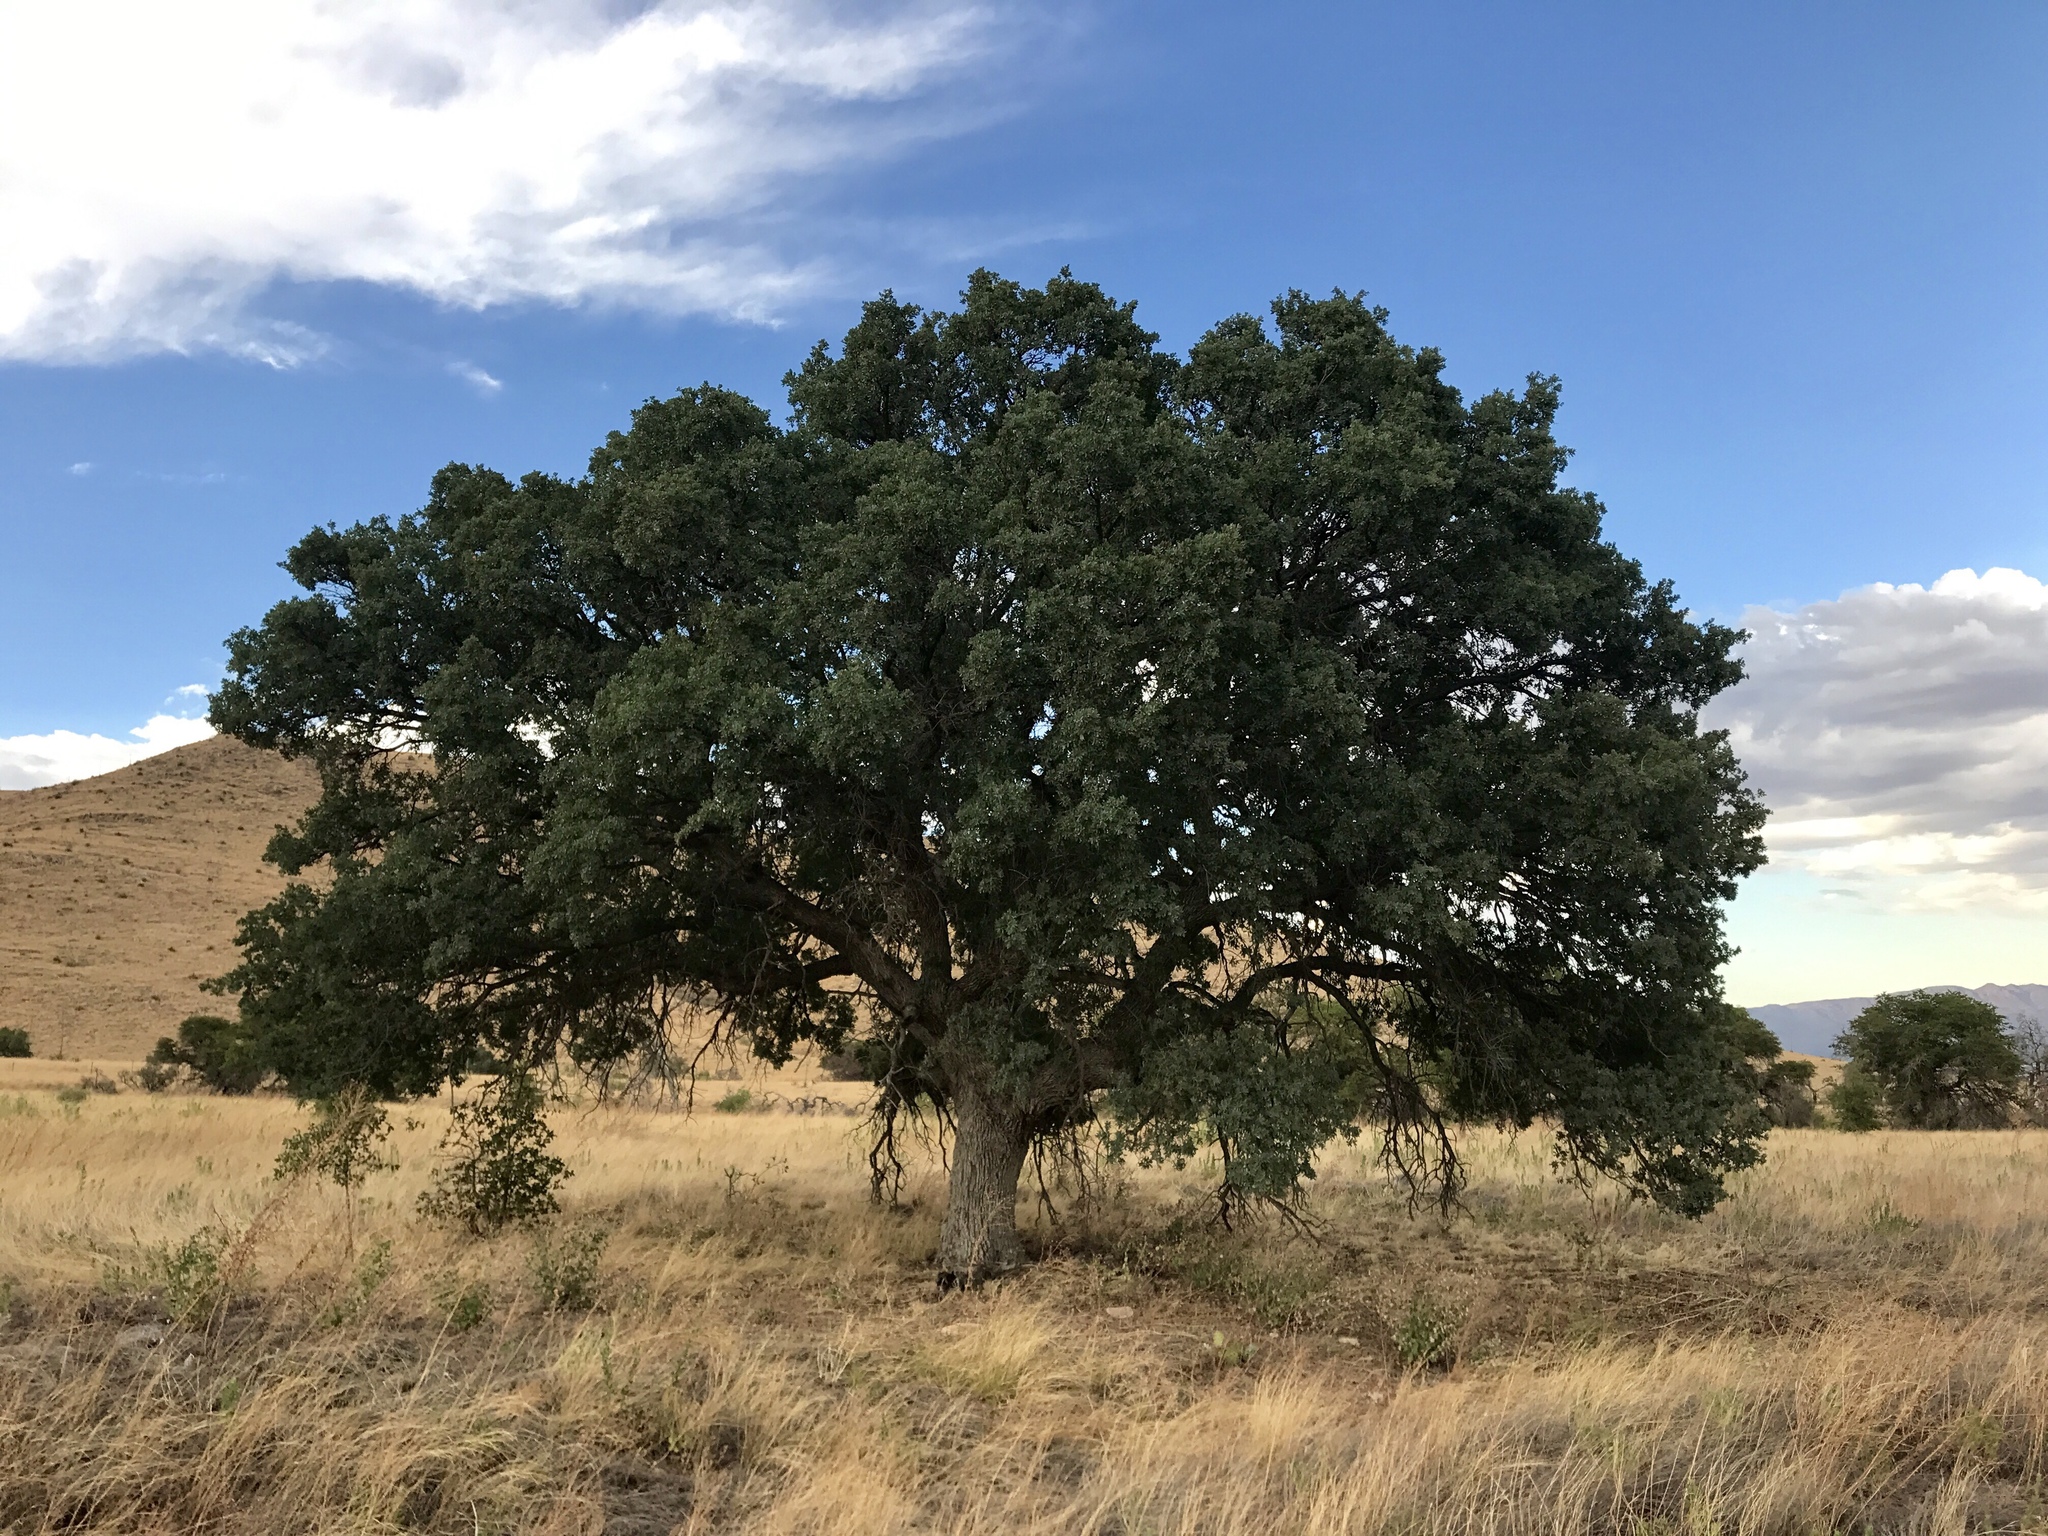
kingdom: Plantae
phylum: Tracheophyta
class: Magnoliopsida
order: Fagales
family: Fagaceae
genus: Quercus
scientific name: Quercus arizonica
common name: Arizona white oak
